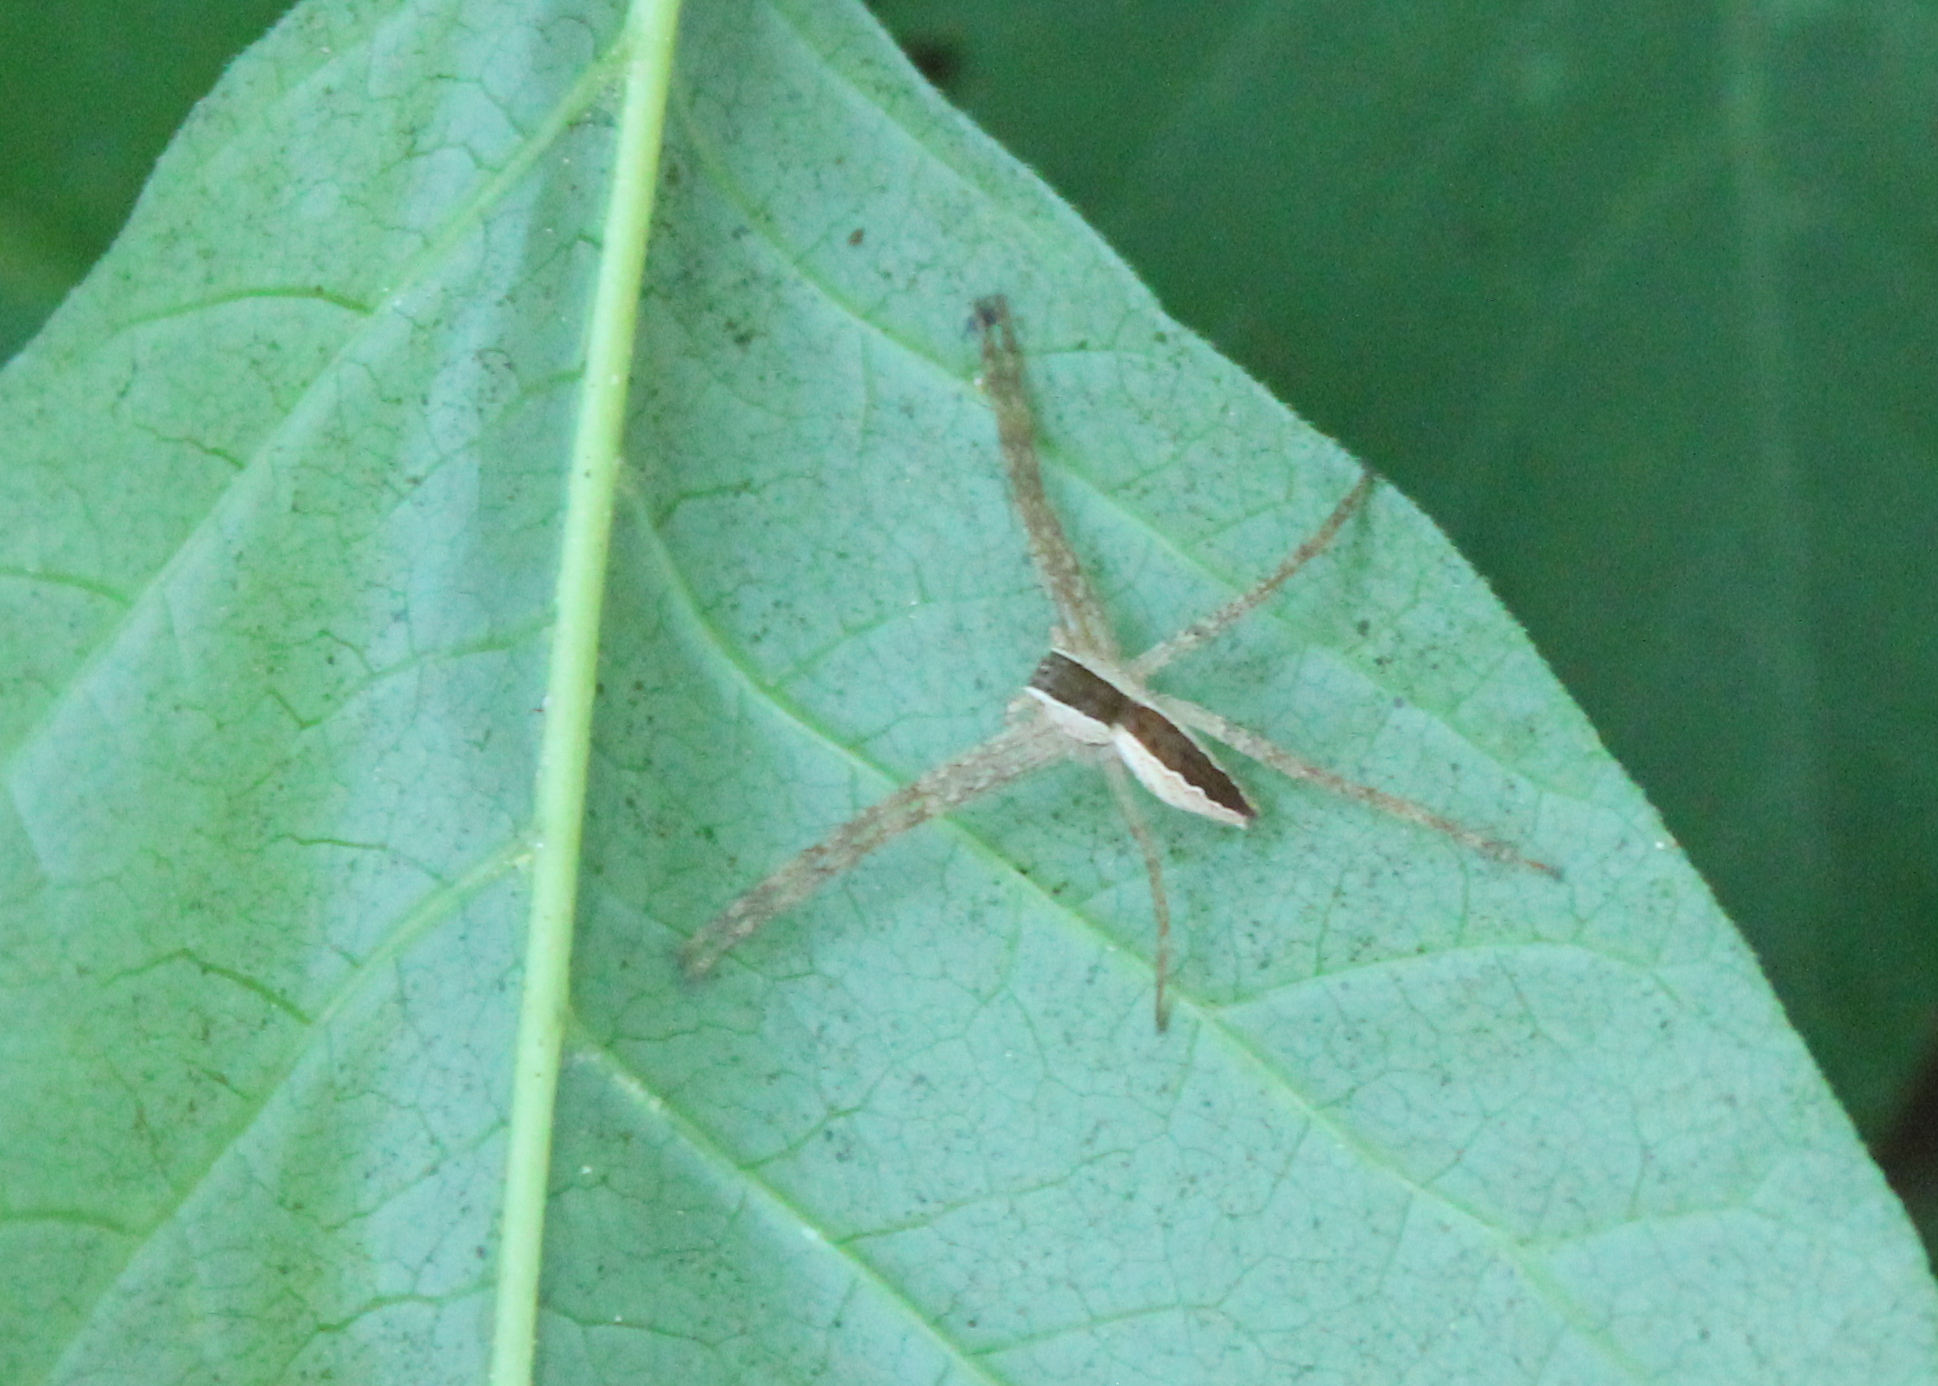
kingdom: Animalia
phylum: Arthropoda
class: Arachnida
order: Araneae
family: Pisauridae
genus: Pisaurina
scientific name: Pisaurina mira
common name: American nursery web spider
